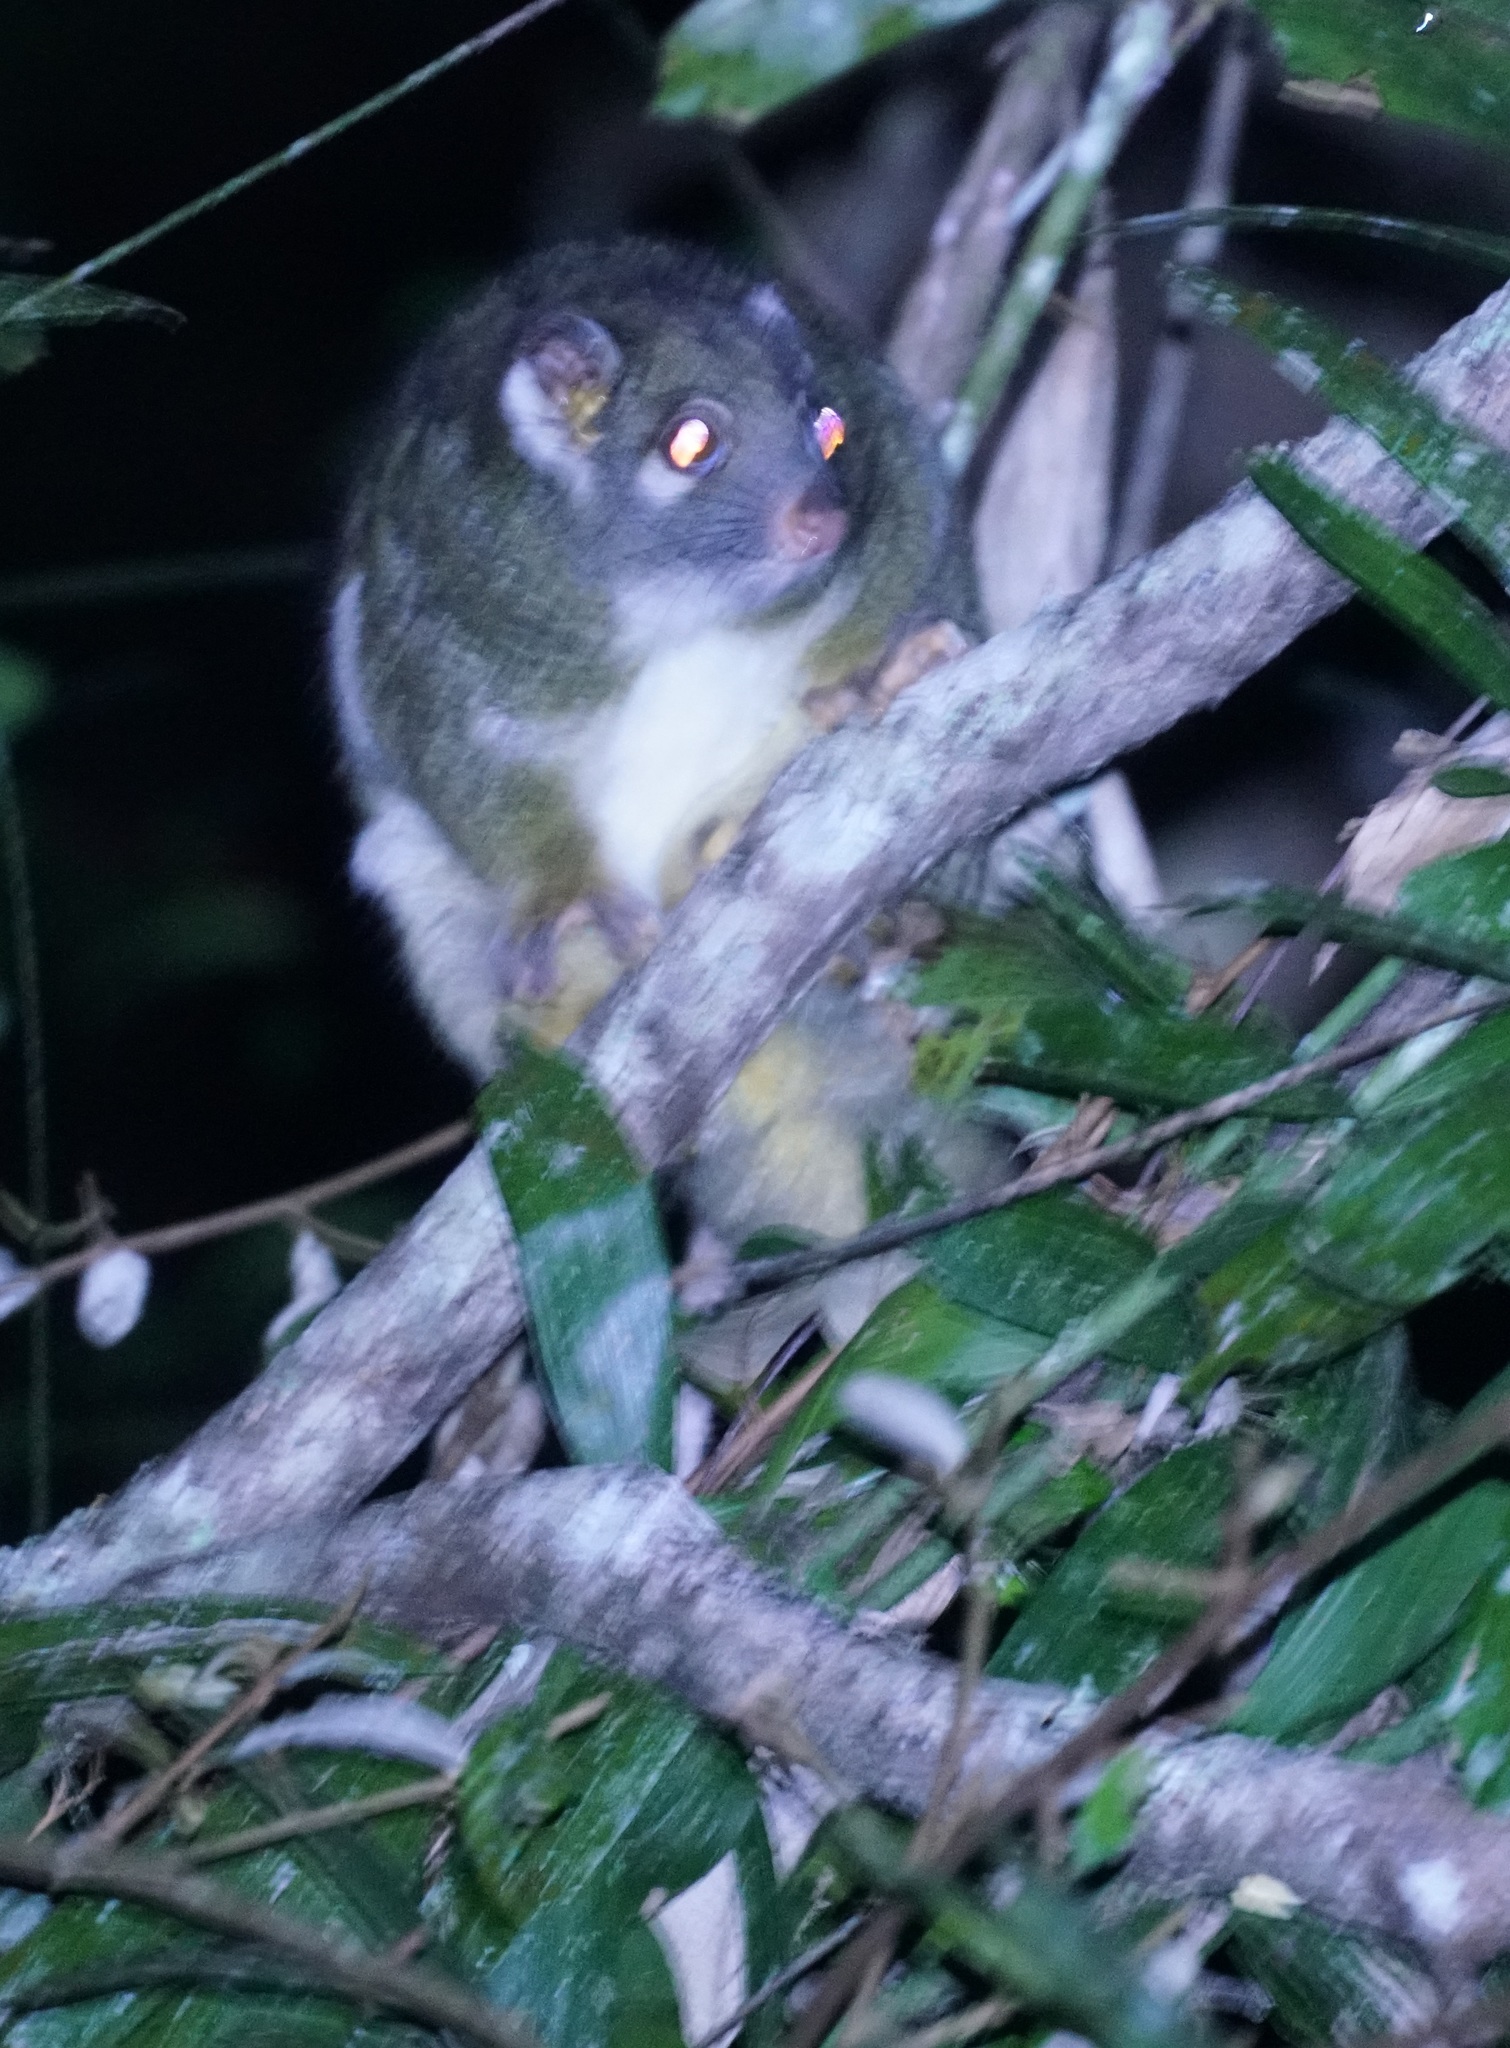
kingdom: Animalia
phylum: Chordata
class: Mammalia
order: Diprotodontia
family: Pseudocheiridae
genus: Pseudochirops
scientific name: Pseudochirops archeri
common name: Green ringtail
